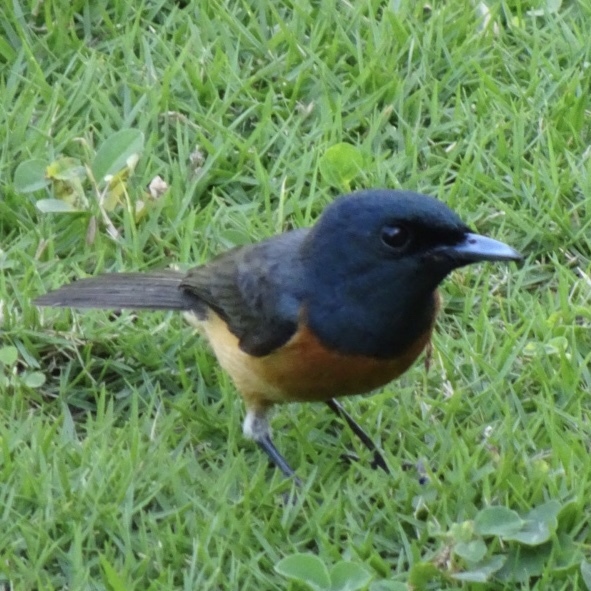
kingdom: Animalia
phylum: Chordata
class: Aves
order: Passeriformes
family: Monarchidae
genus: Myiagra
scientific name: Myiagra vanikorensis
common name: Vanikoro flycatcher
